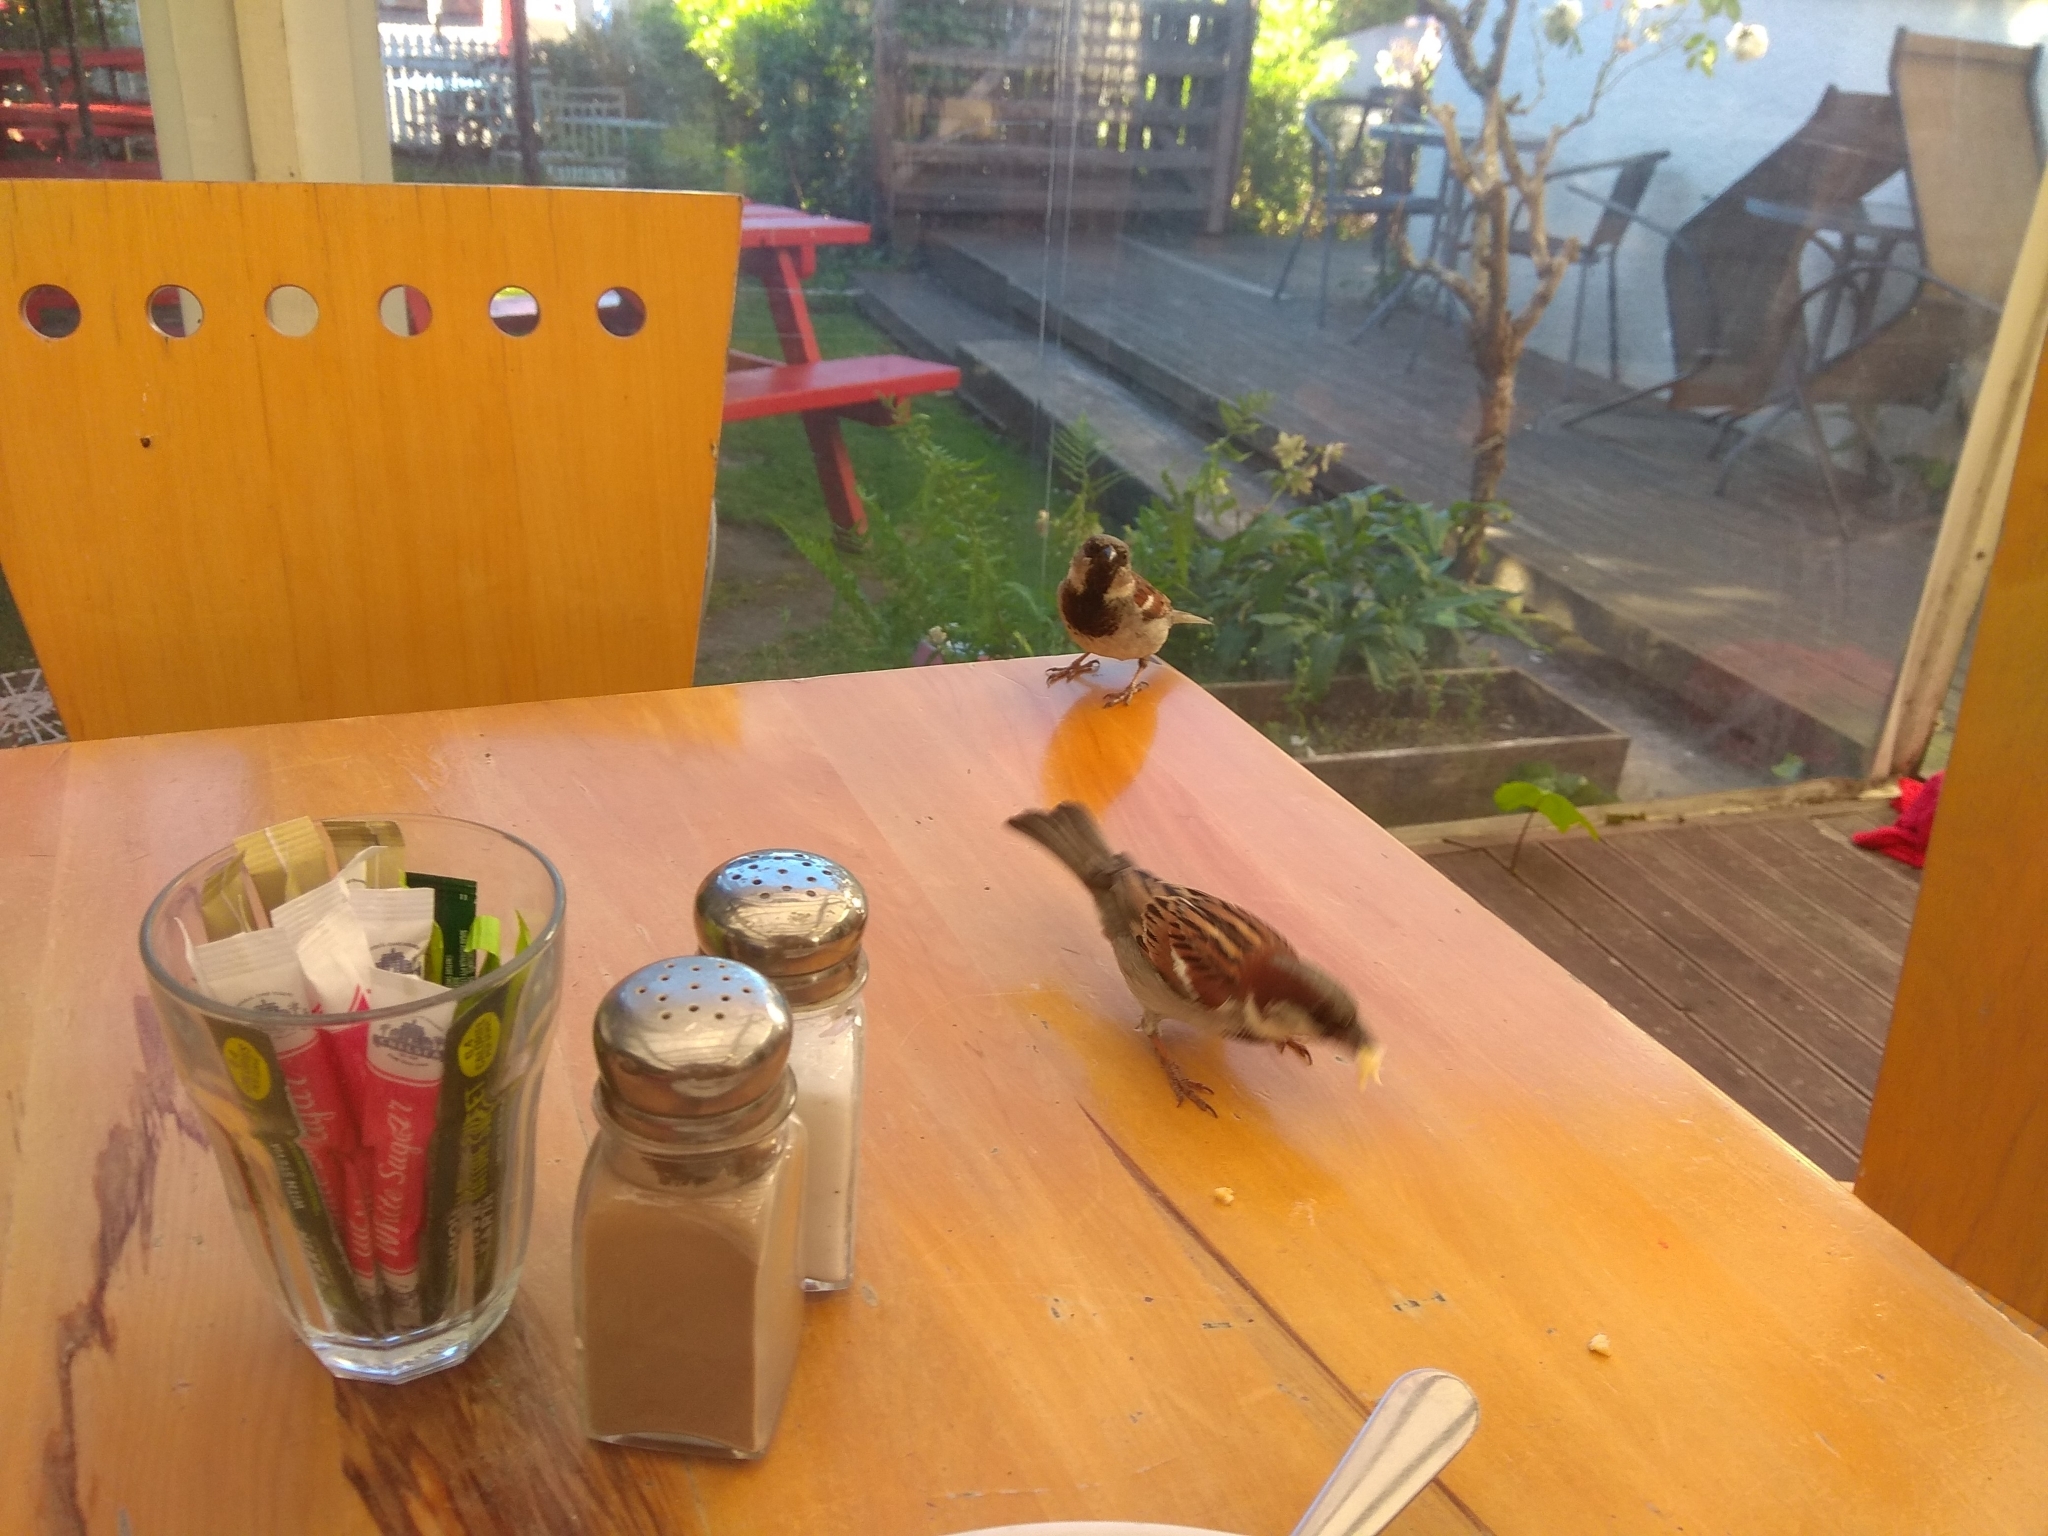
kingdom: Animalia
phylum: Chordata
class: Aves
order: Passeriformes
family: Passeridae
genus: Passer
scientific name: Passer domesticus
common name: House sparrow
